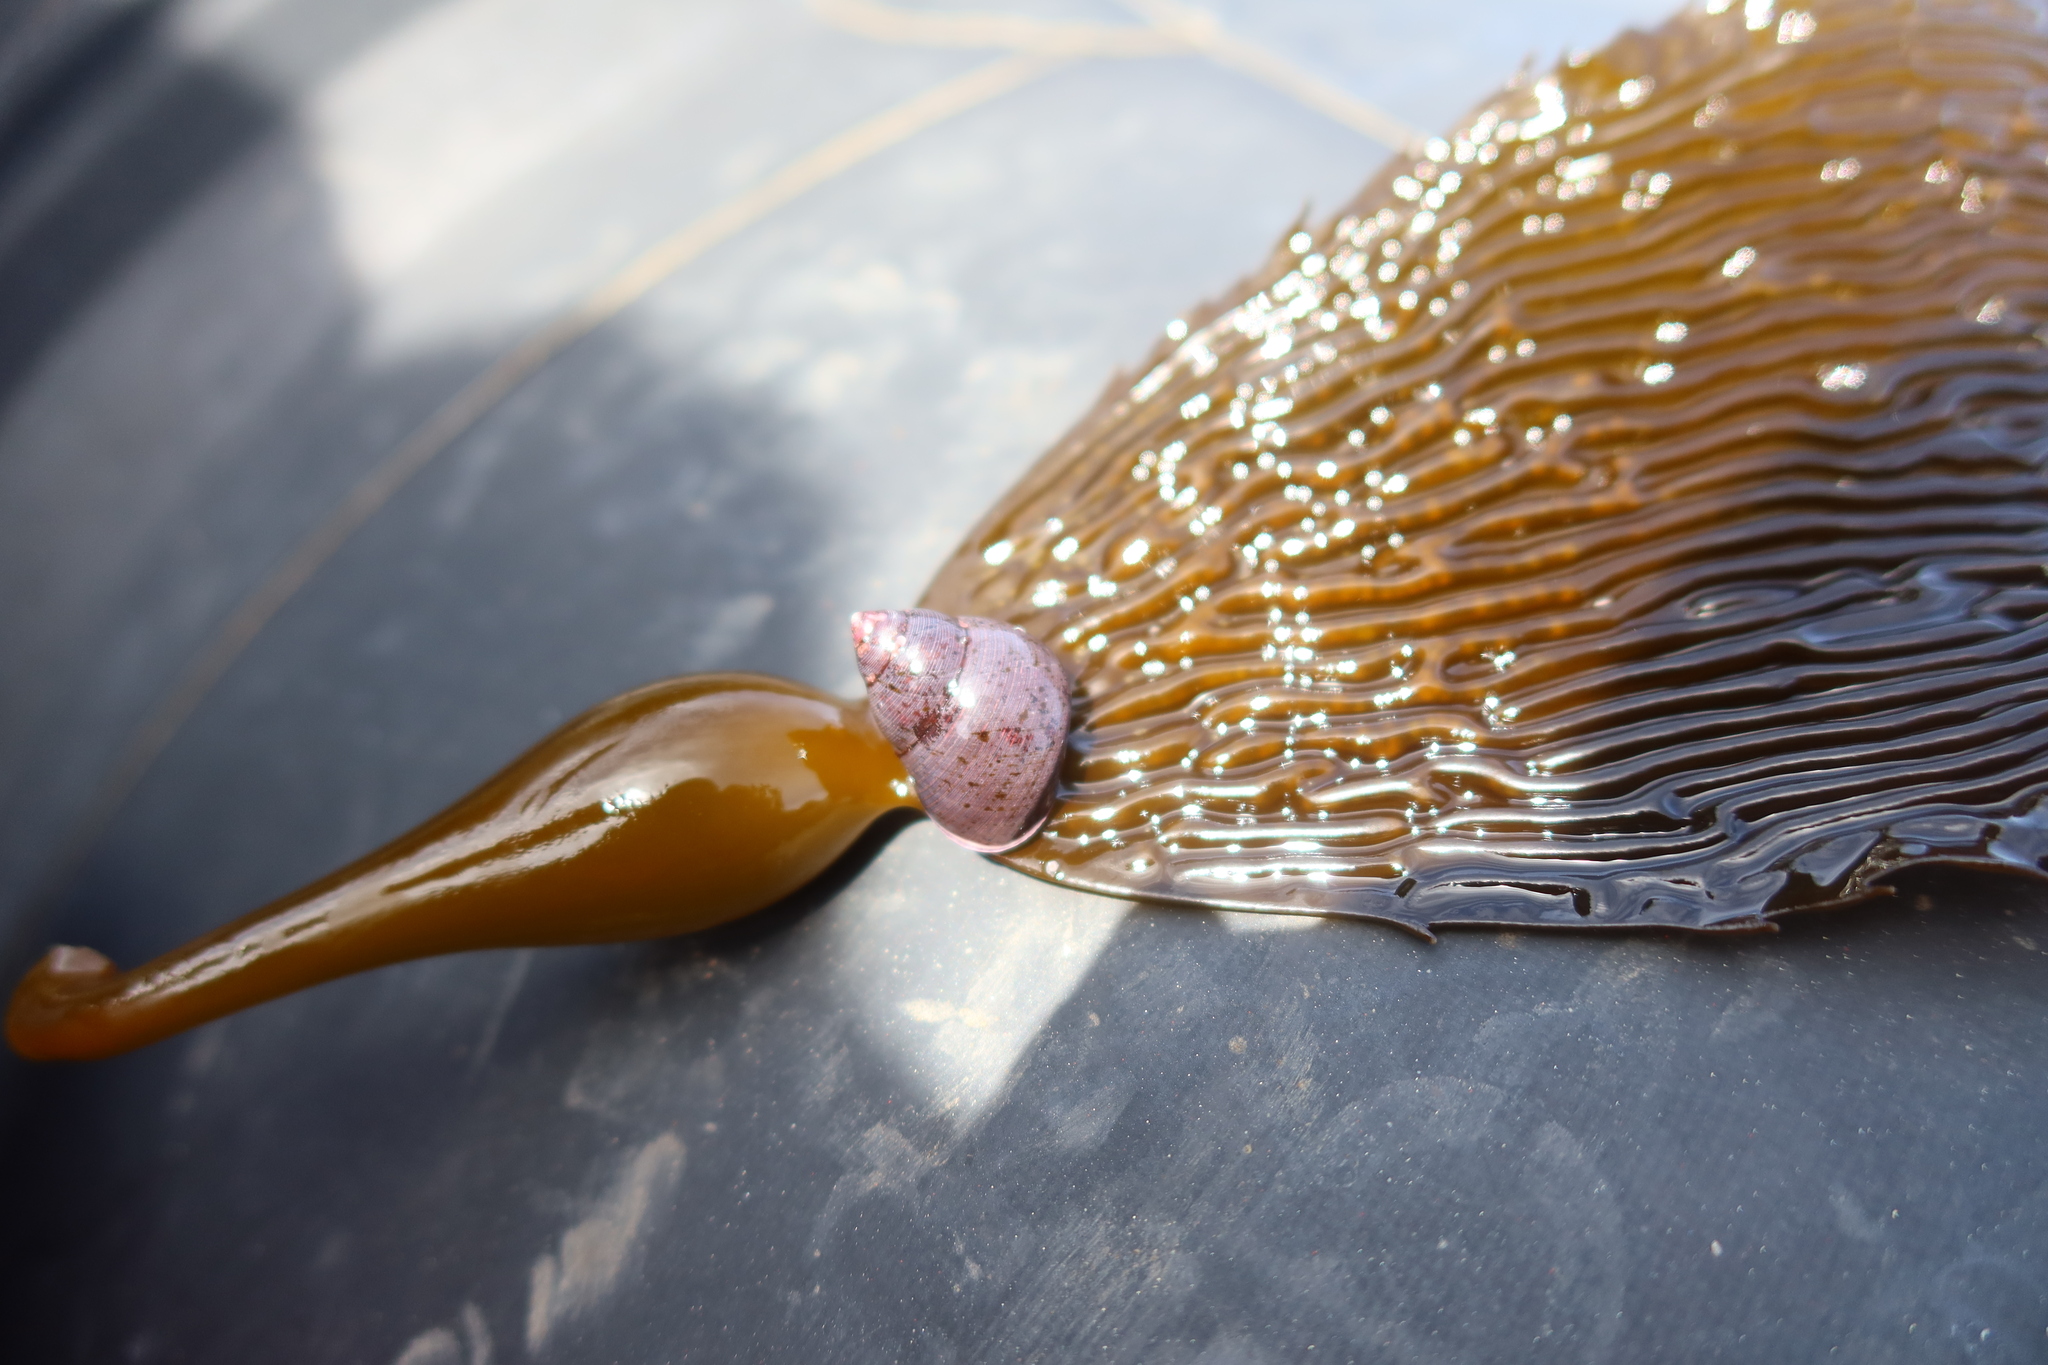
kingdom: Animalia
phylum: Mollusca
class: Gastropoda
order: Trochida
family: Trochidae
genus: Cantharidus
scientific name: Cantharidus capillaceus
